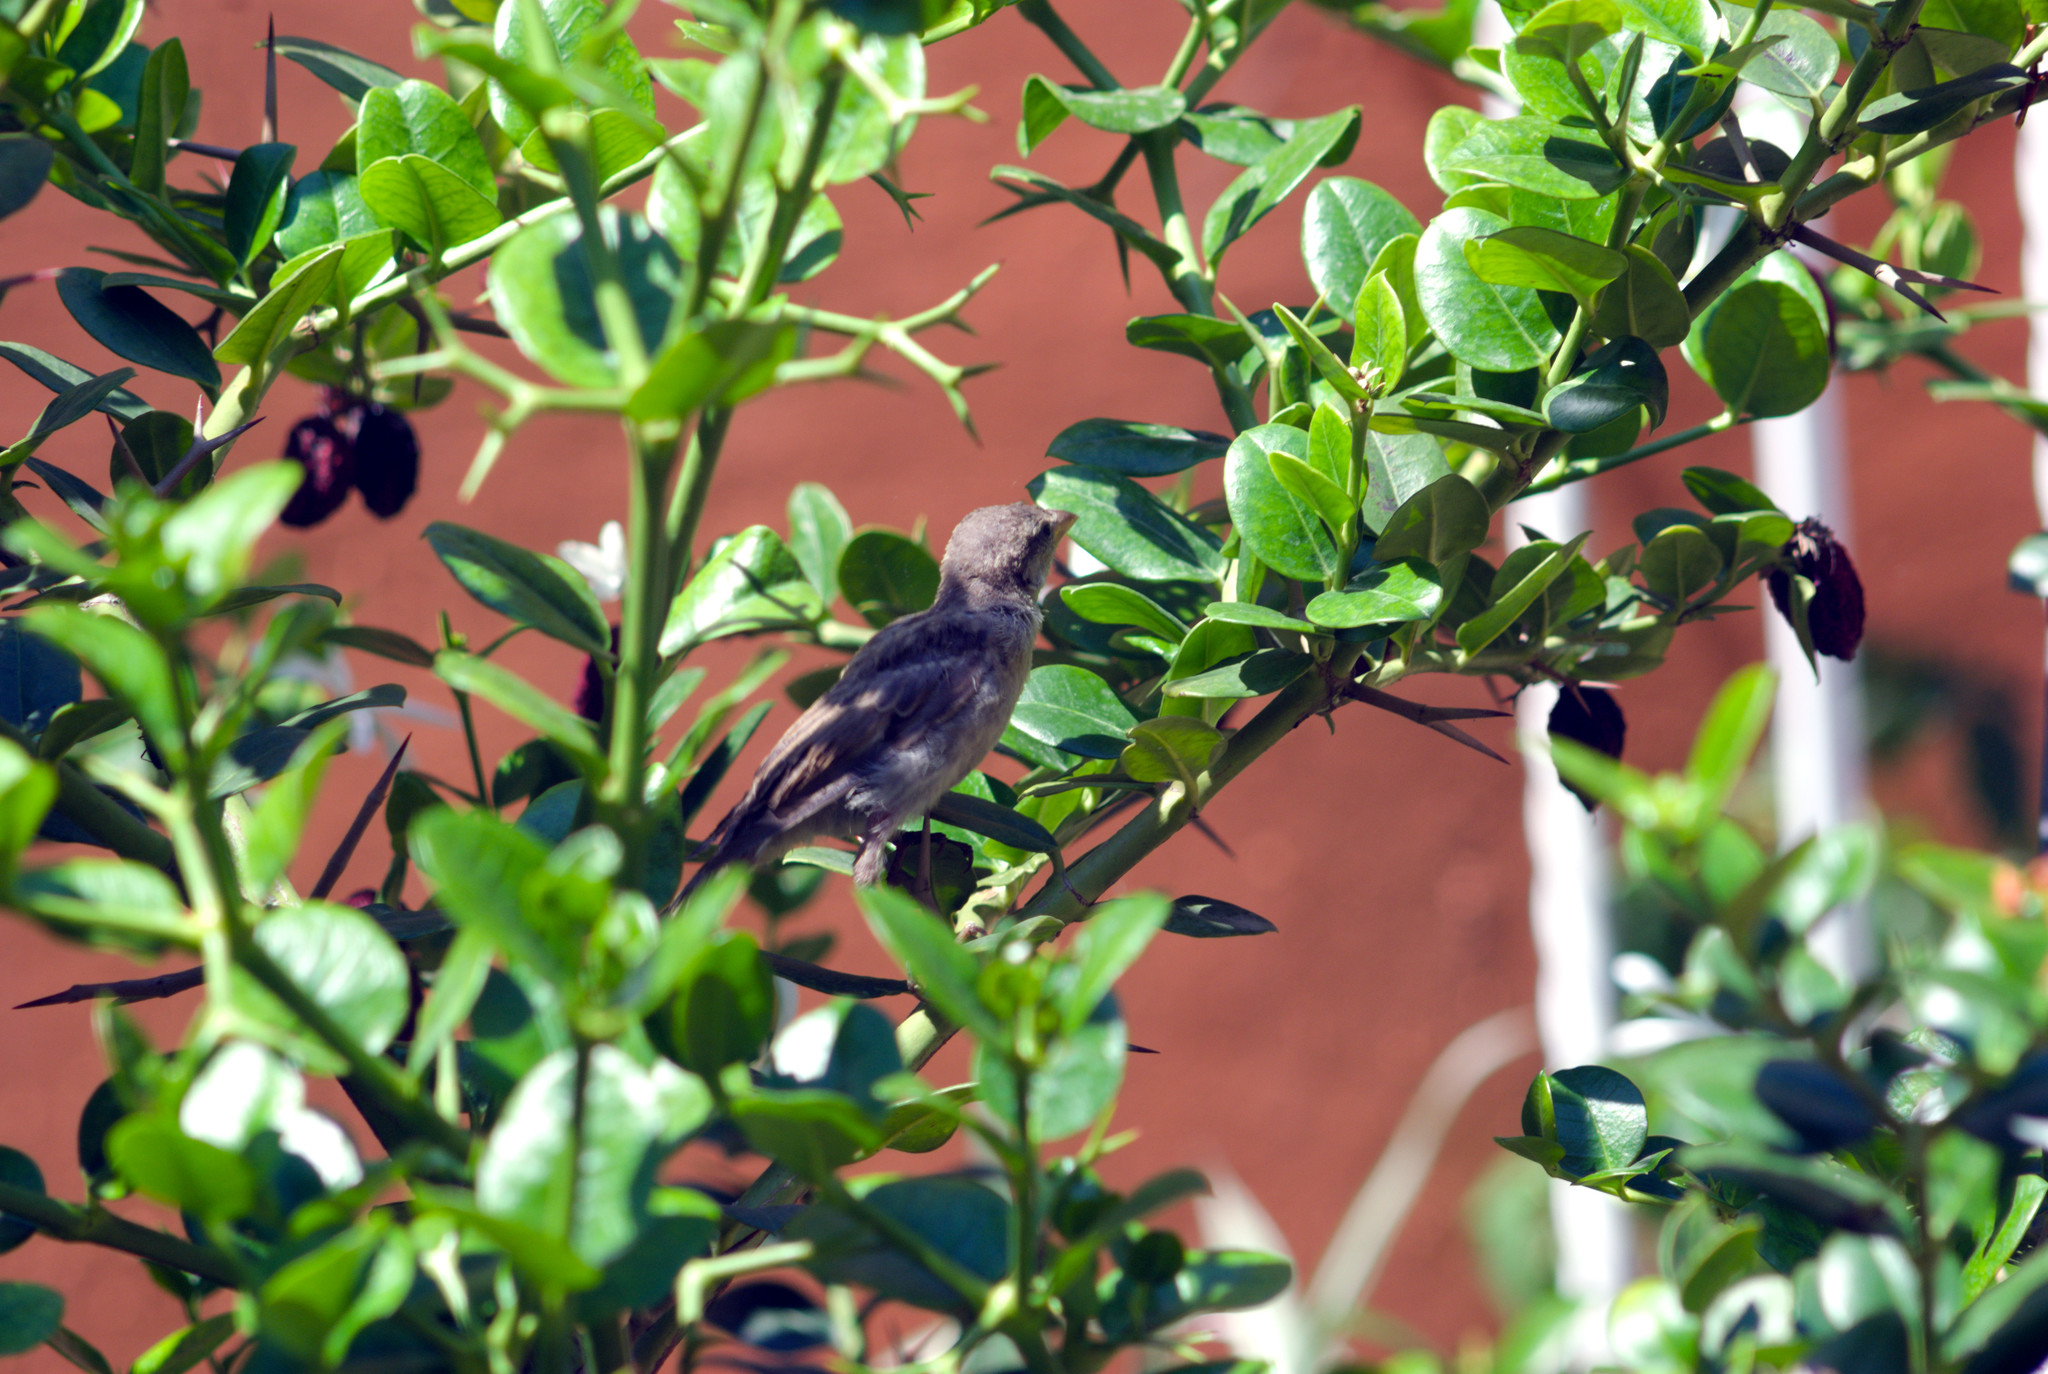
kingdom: Animalia
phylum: Chordata
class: Aves
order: Passeriformes
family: Passeridae
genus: Passer
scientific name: Passer domesticus
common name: House sparrow
